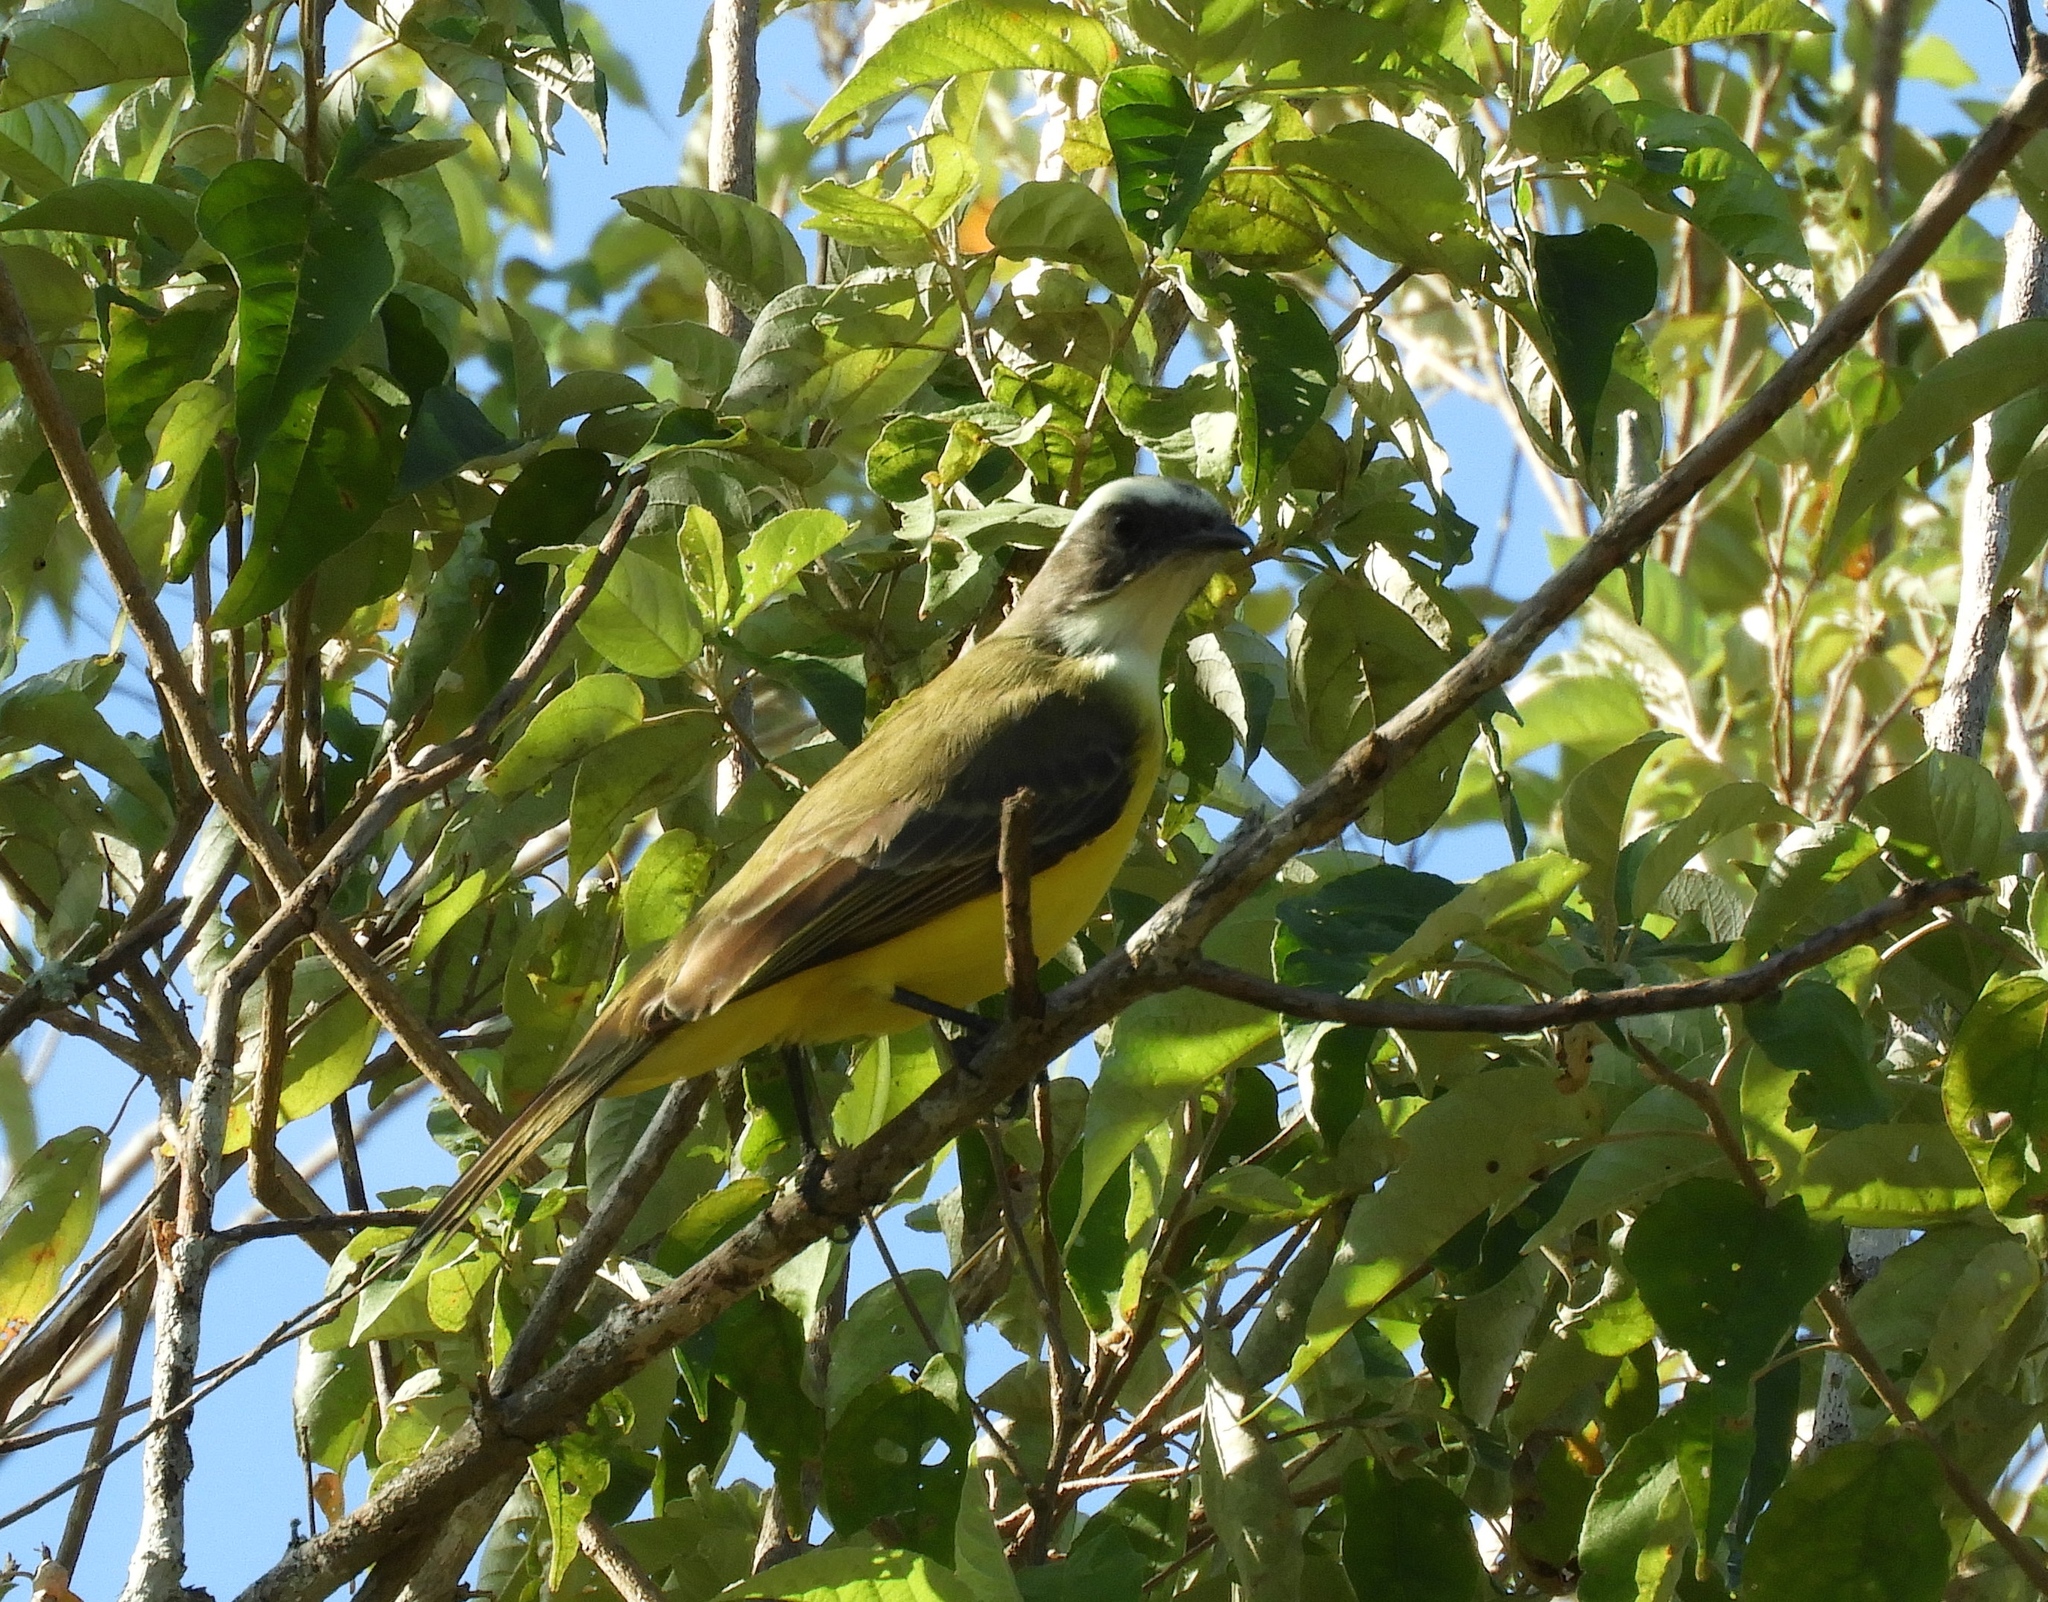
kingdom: Animalia
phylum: Chordata
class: Aves
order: Passeriformes
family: Tyrannidae
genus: Myiozetetes
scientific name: Myiozetetes similis
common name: Social flycatcher
